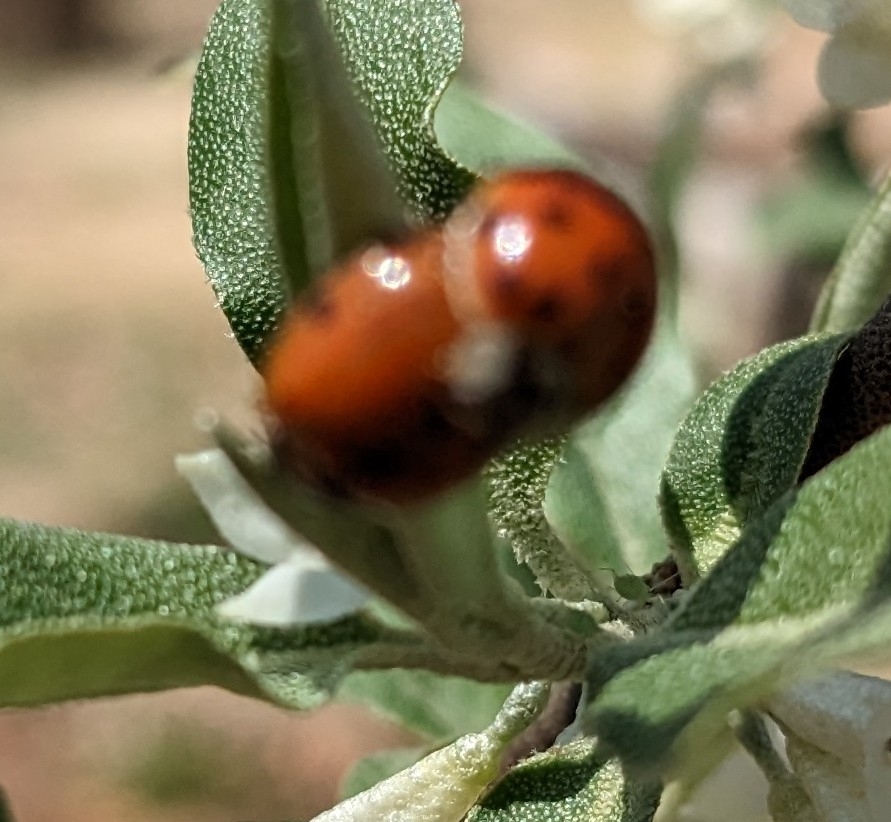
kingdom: Animalia
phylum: Arthropoda
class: Insecta
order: Coleoptera
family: Coccinellidae
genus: Harmonia
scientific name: Harmonia axyridis
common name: Harlequin ladybird
